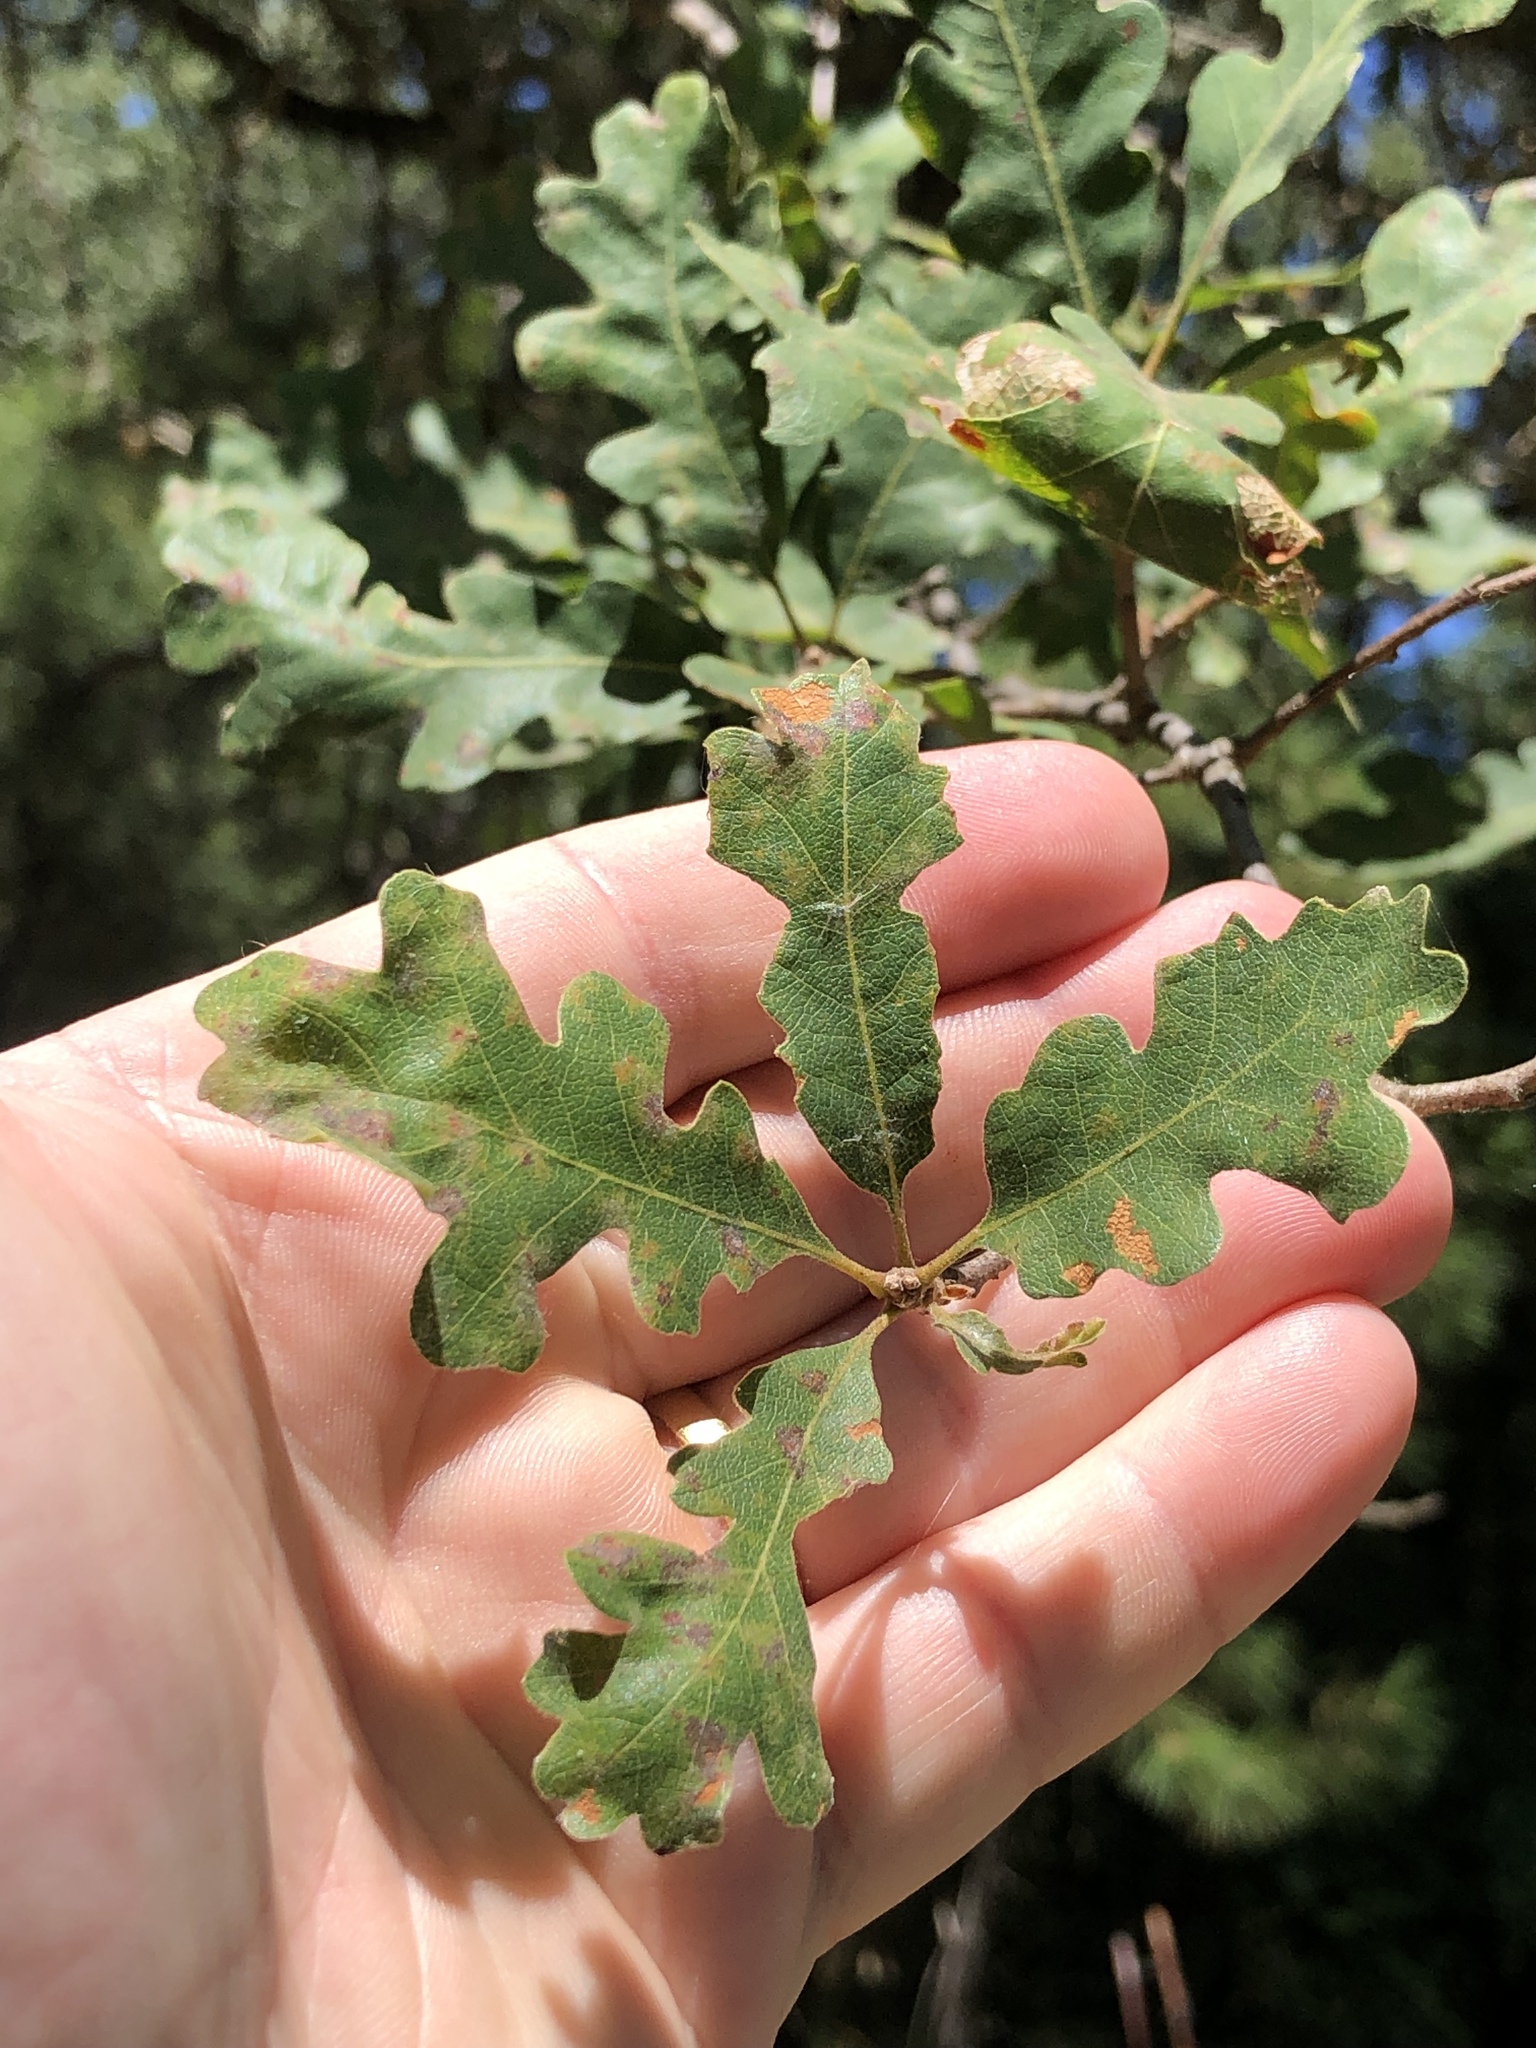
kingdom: Plantae
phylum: Tracheophyta
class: Magnoliopsida
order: Fagales
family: Fagaceae
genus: Quercus
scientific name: Quercus lobata
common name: Valley oak
